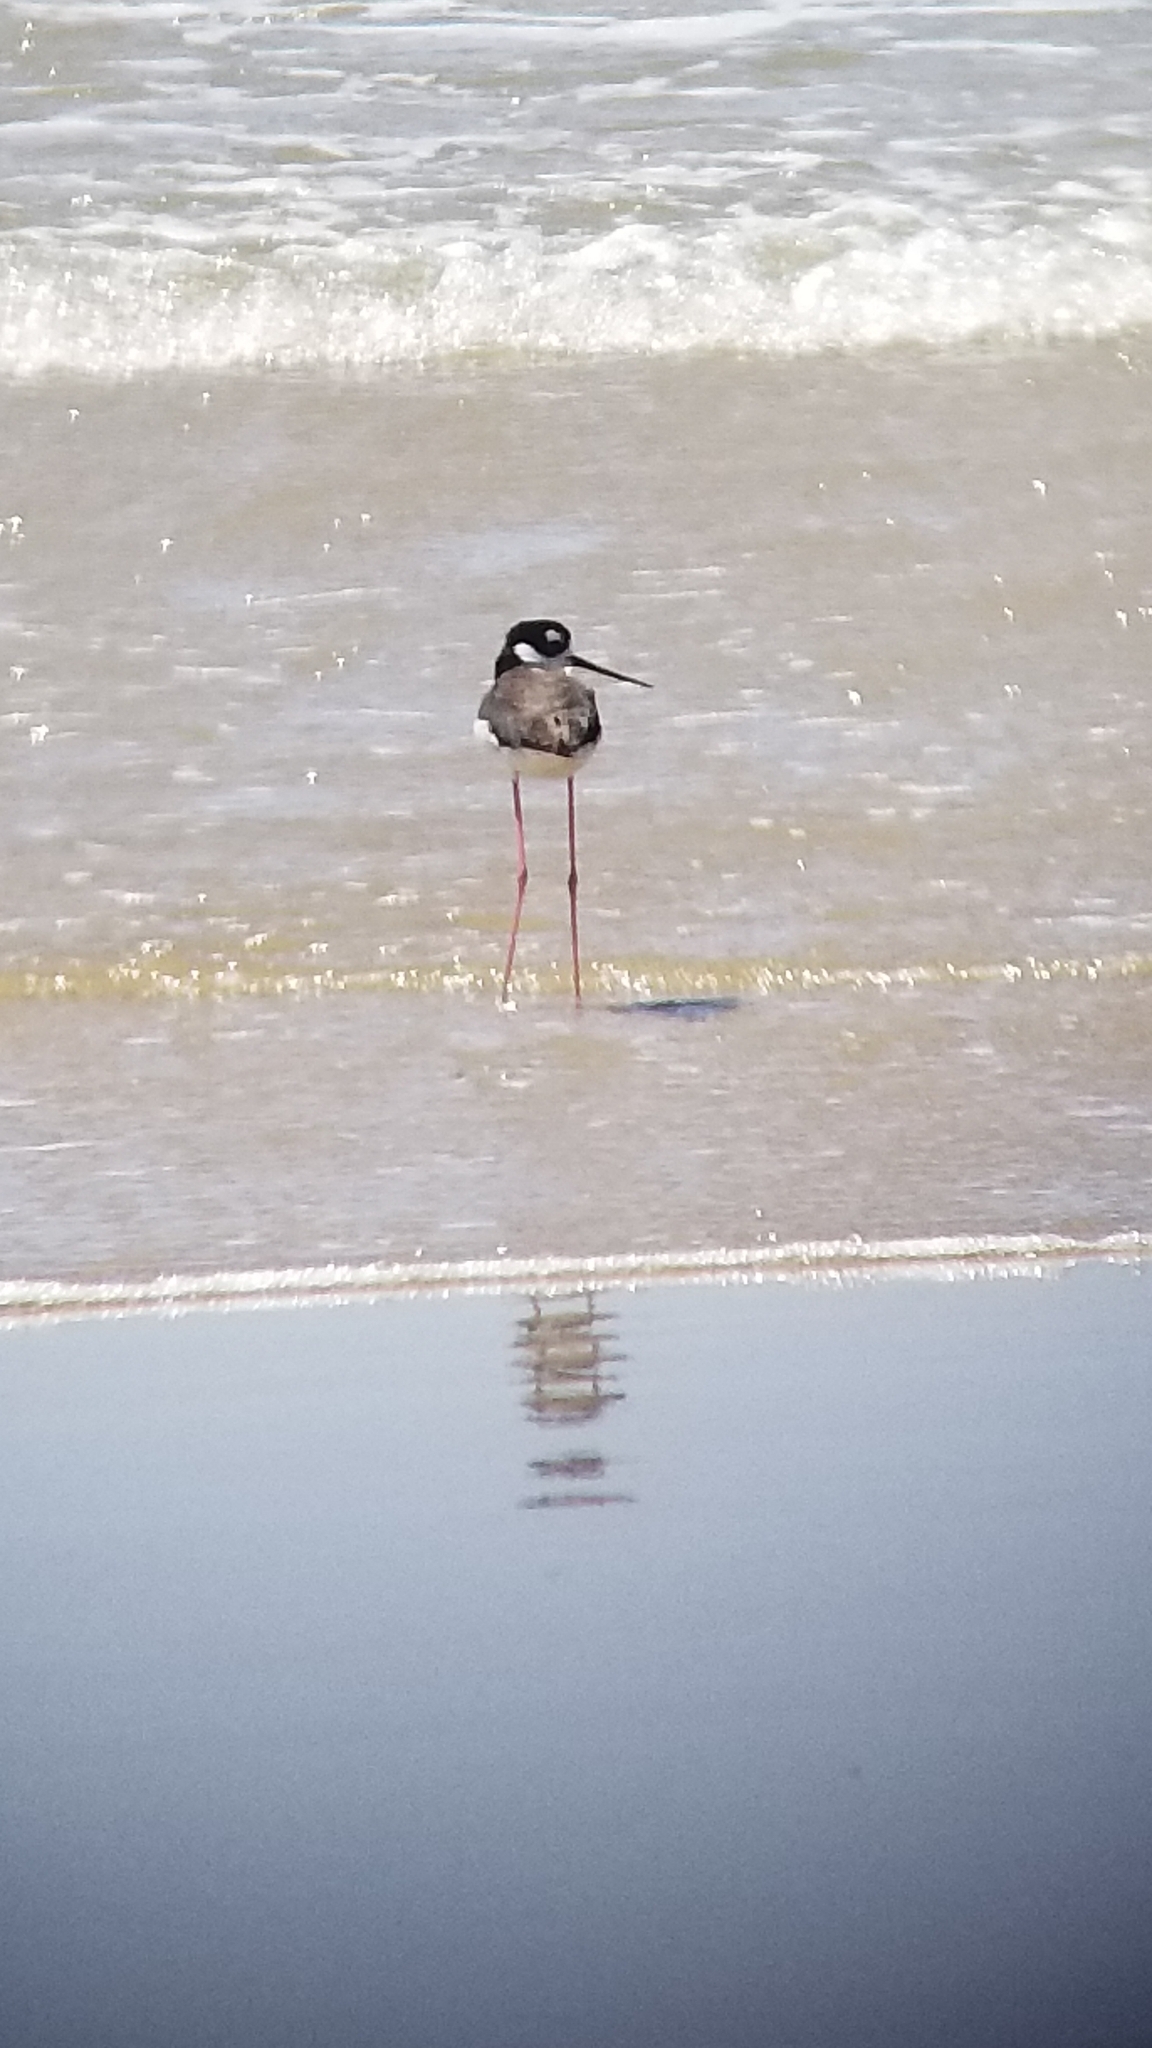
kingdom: Animalia
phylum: Chordata
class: Aves
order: Charadriiformes
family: Recurvirostridae
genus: Himantopus
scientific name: Himantopus mexicanus
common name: Black-necked stilt
